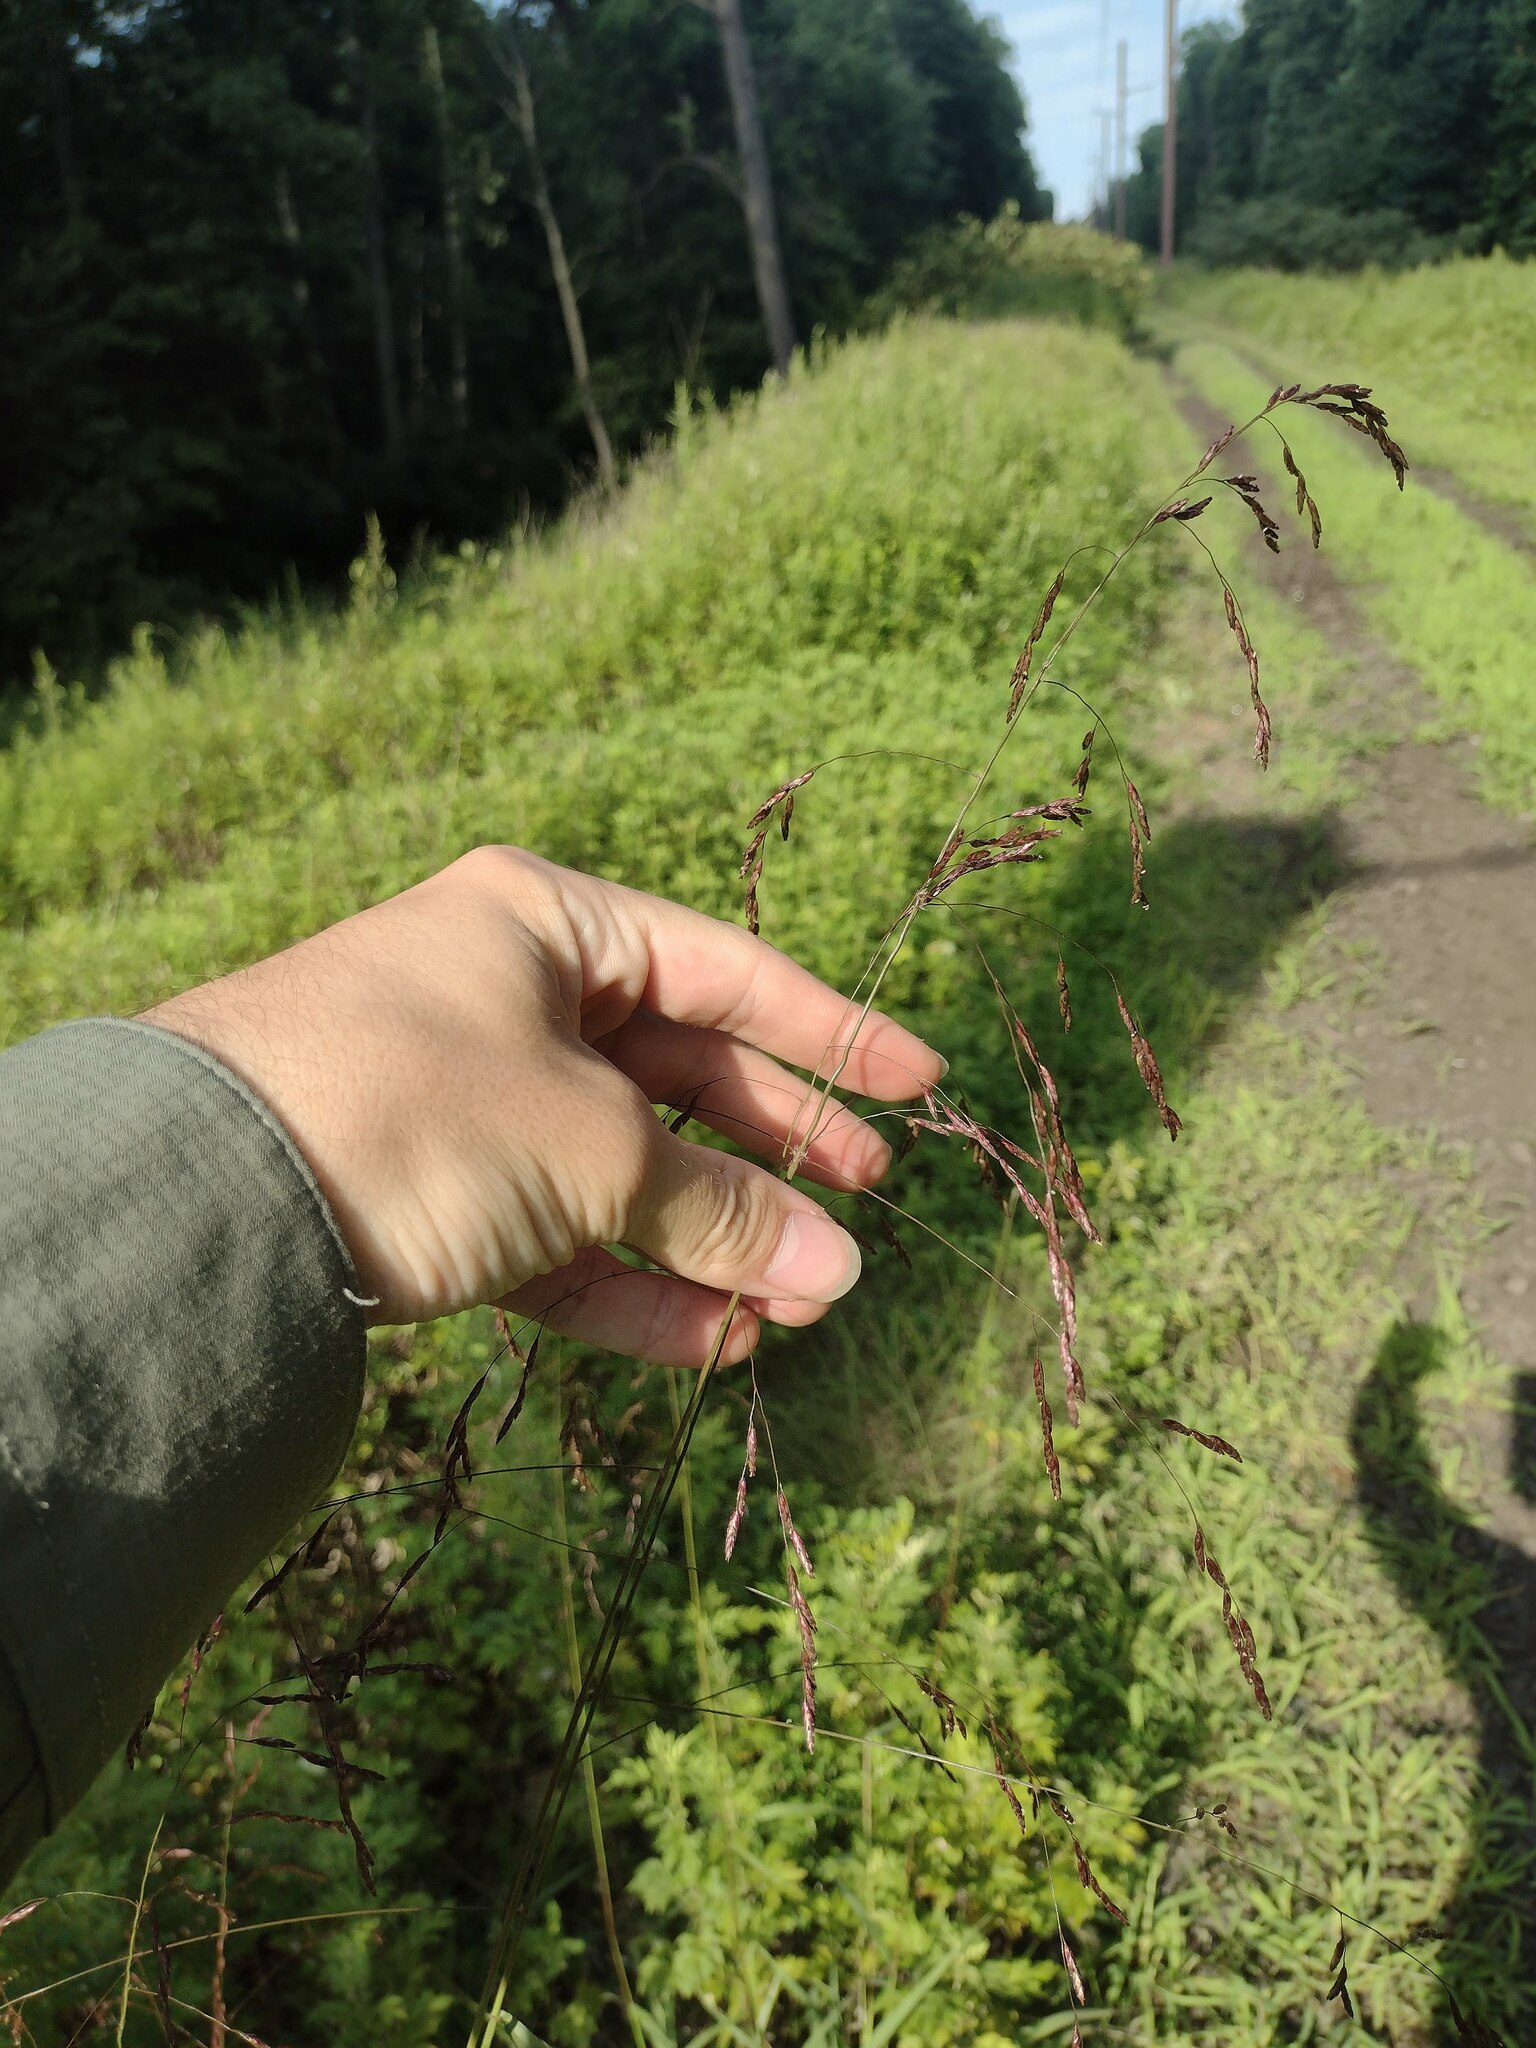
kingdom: Plantae
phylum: Tracheophyta
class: Liliopsida
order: Poales
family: Poaceae
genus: Tridens
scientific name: Tridens flavus
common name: Purpletop
